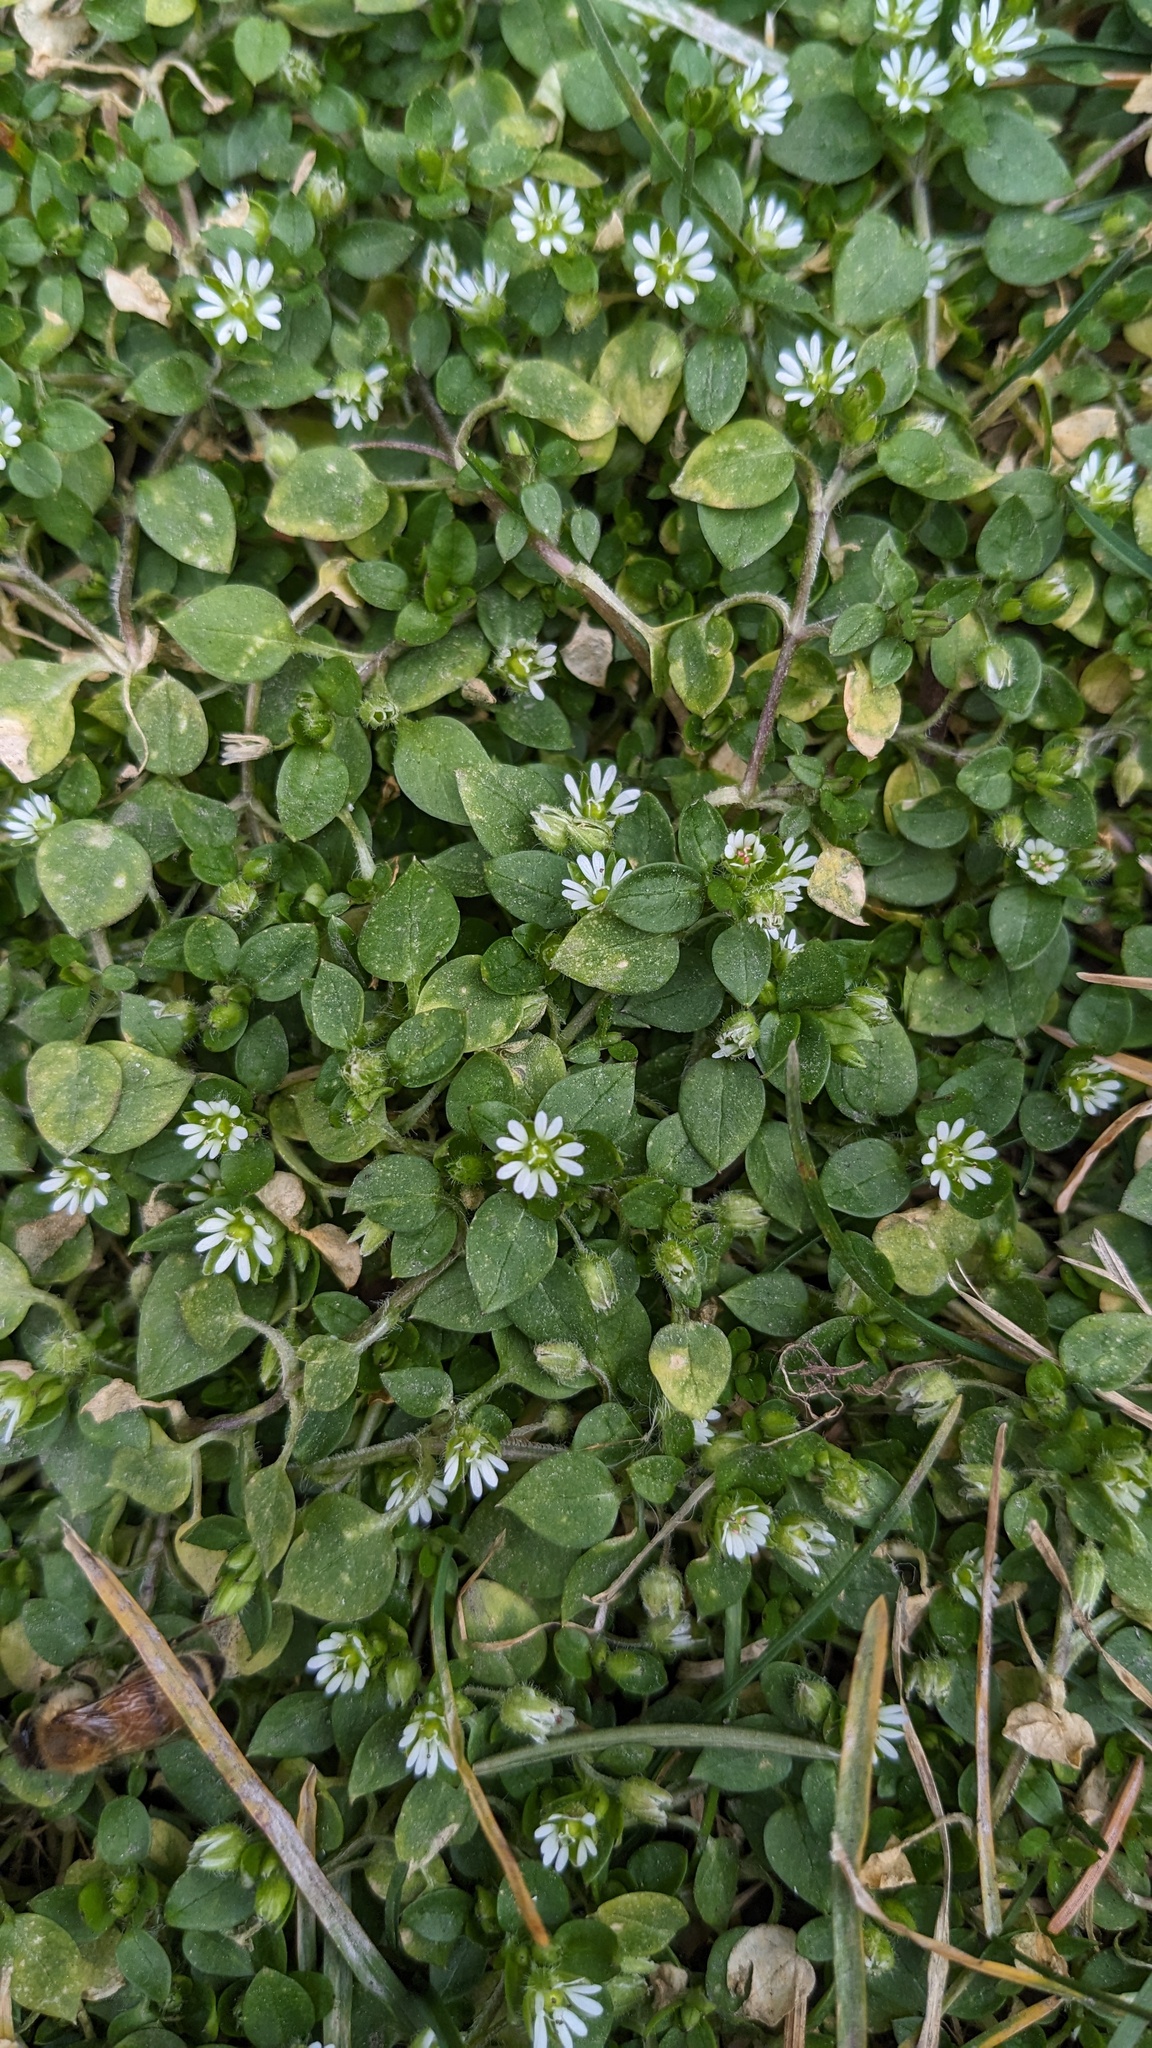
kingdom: Plantae
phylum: Tracheophyta
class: Magnoliopsida
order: Caryophyllales
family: Caryophyllaceae
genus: Stellaria
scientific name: Stellaria media
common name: Common chickweed
